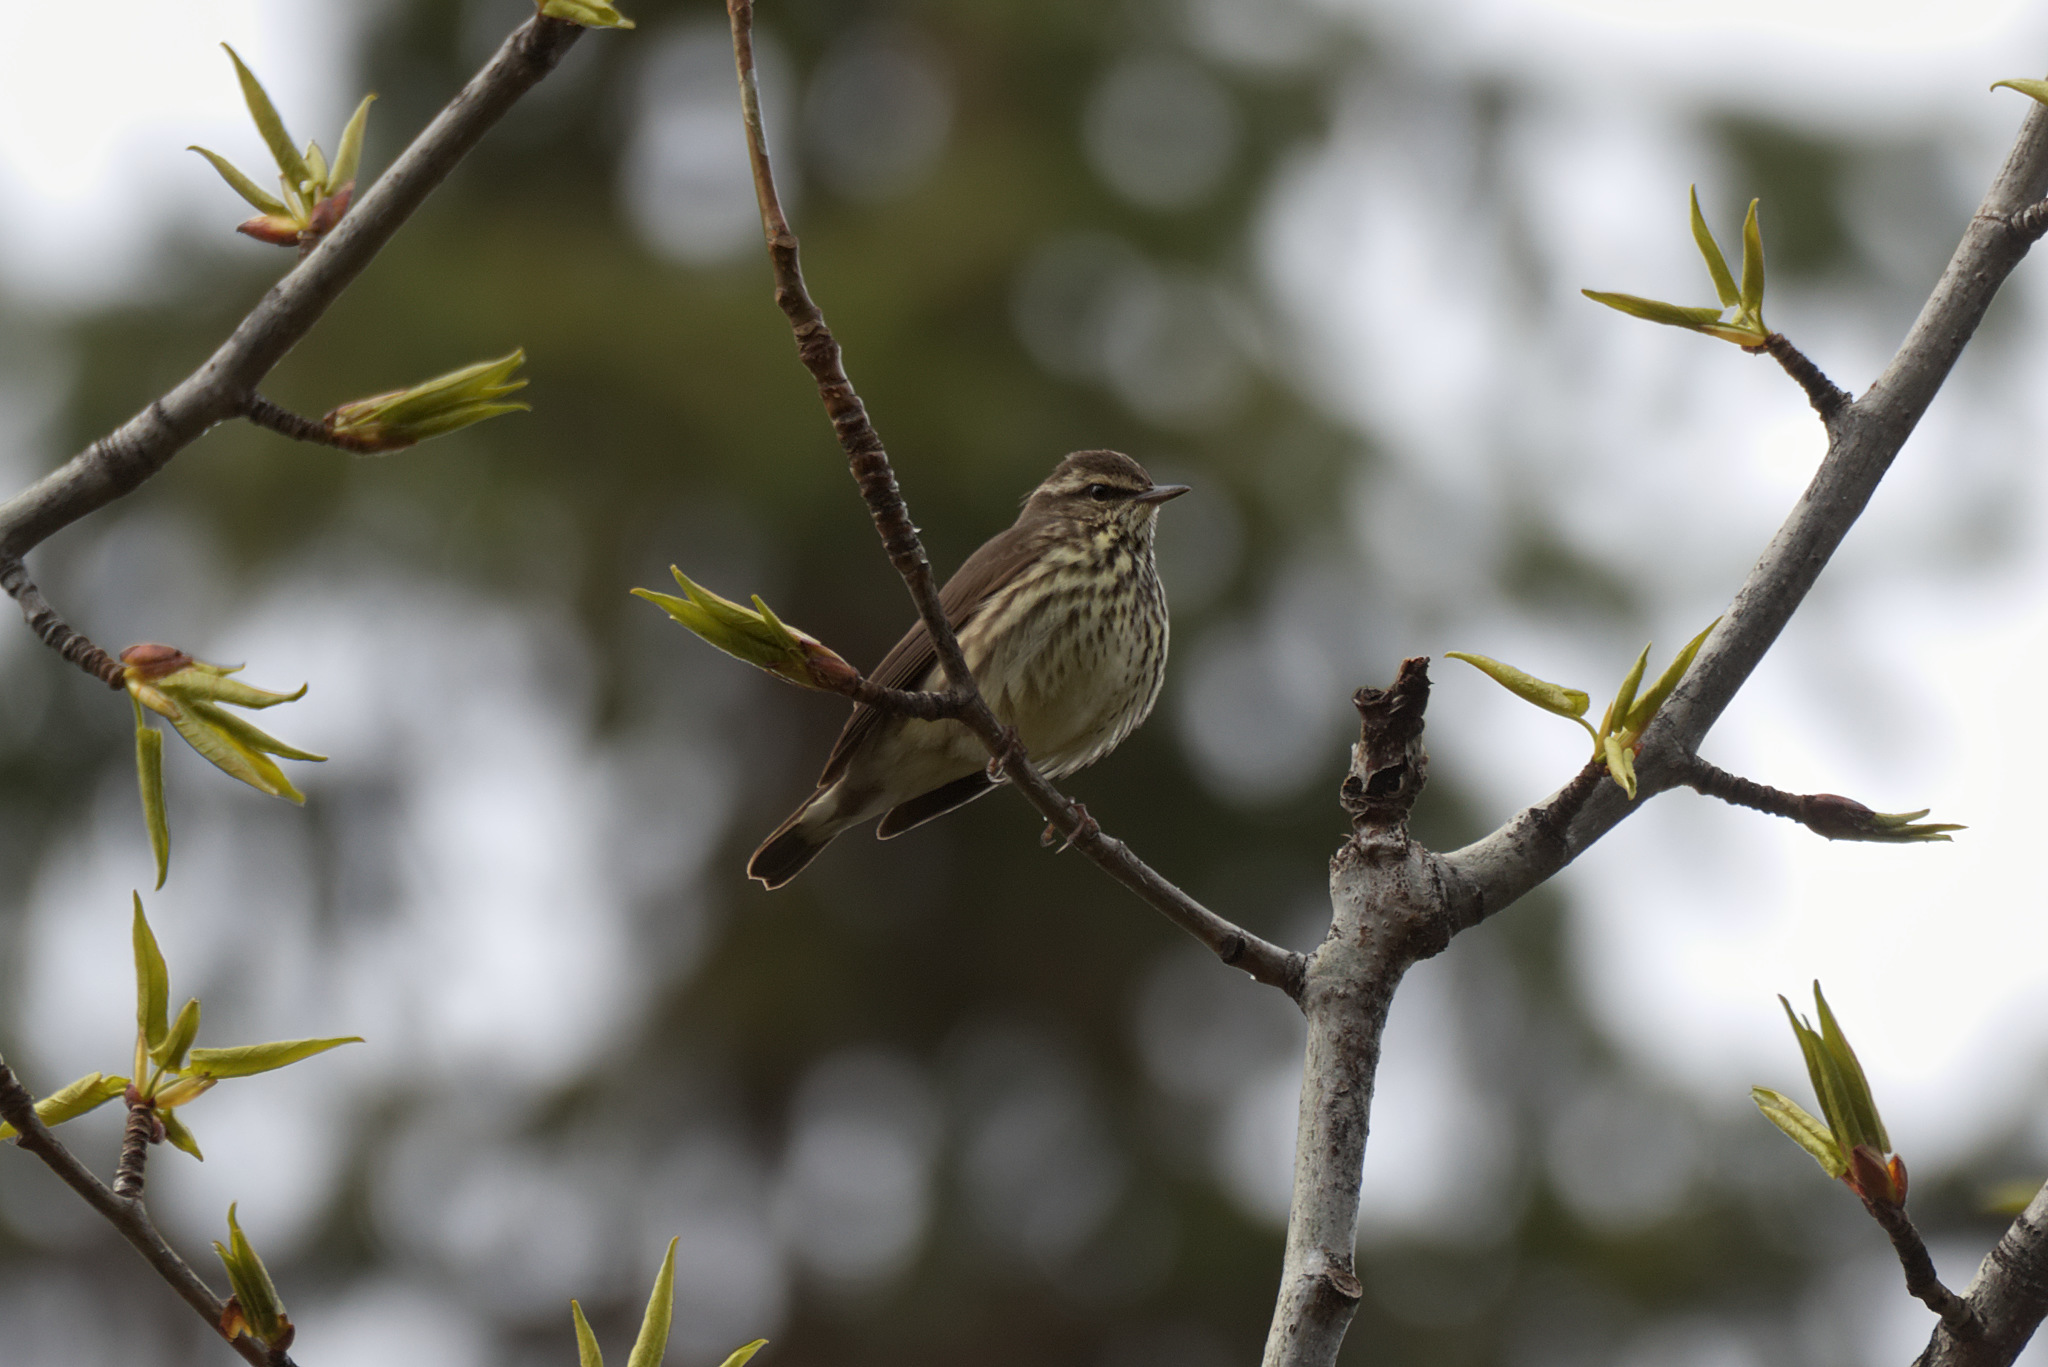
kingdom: Animalia
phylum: Chordata
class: Aves
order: Passeriformes
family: Parulidae
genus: Parkesia
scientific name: Parkesia noveboracensis
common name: Northern waterthrush
